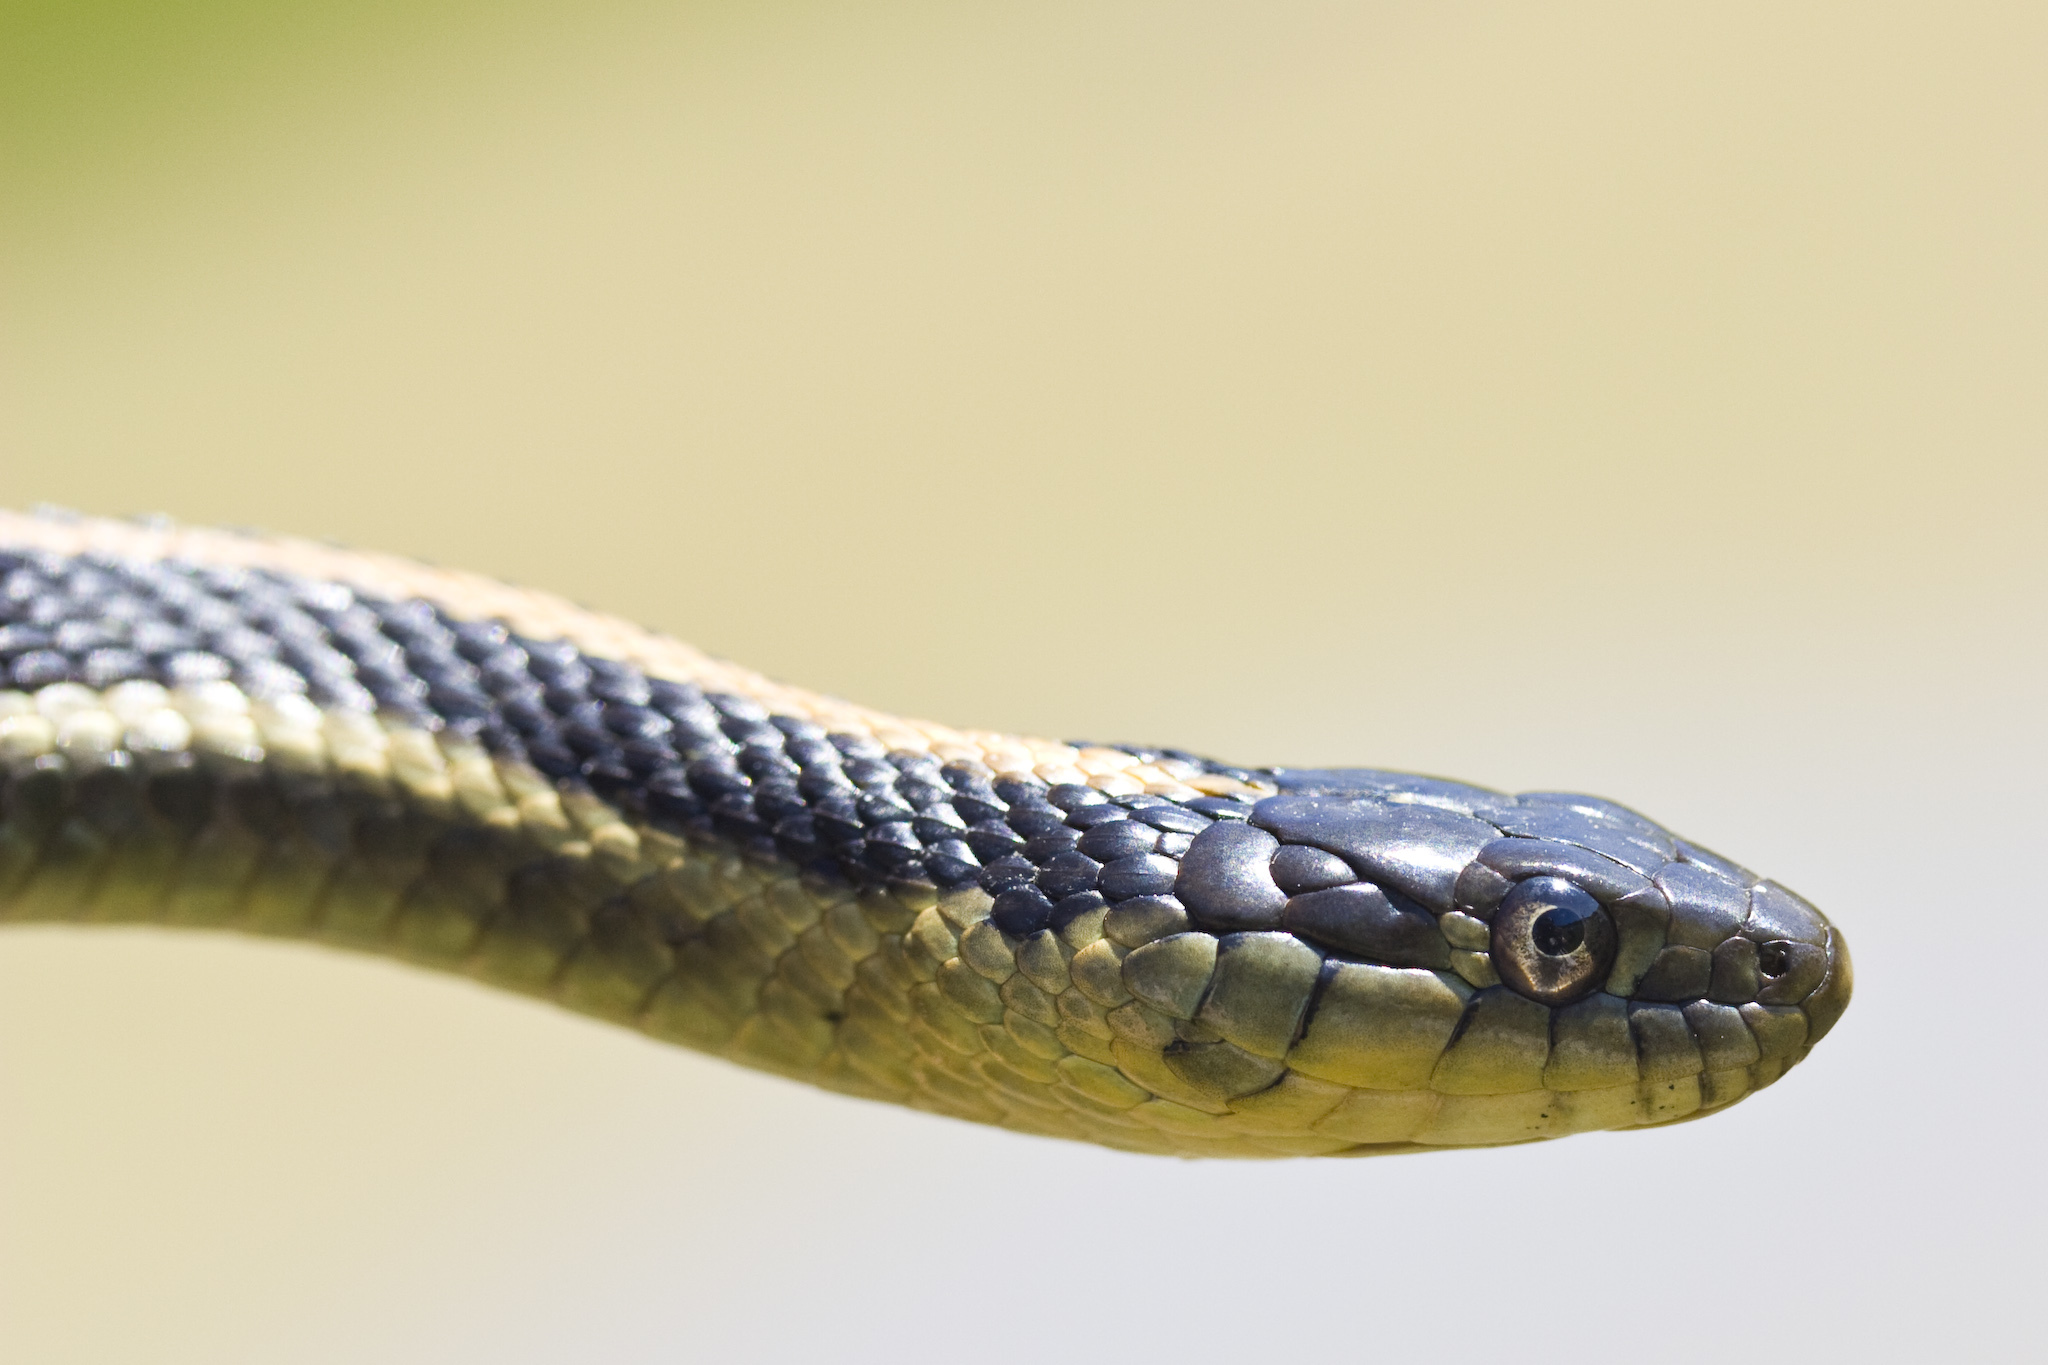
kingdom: Animalia
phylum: Chordata
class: Squamata
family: Colubridae
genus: Thamnophis
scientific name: Thamnophis atratus
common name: Pacific coast aquatic garter snake
